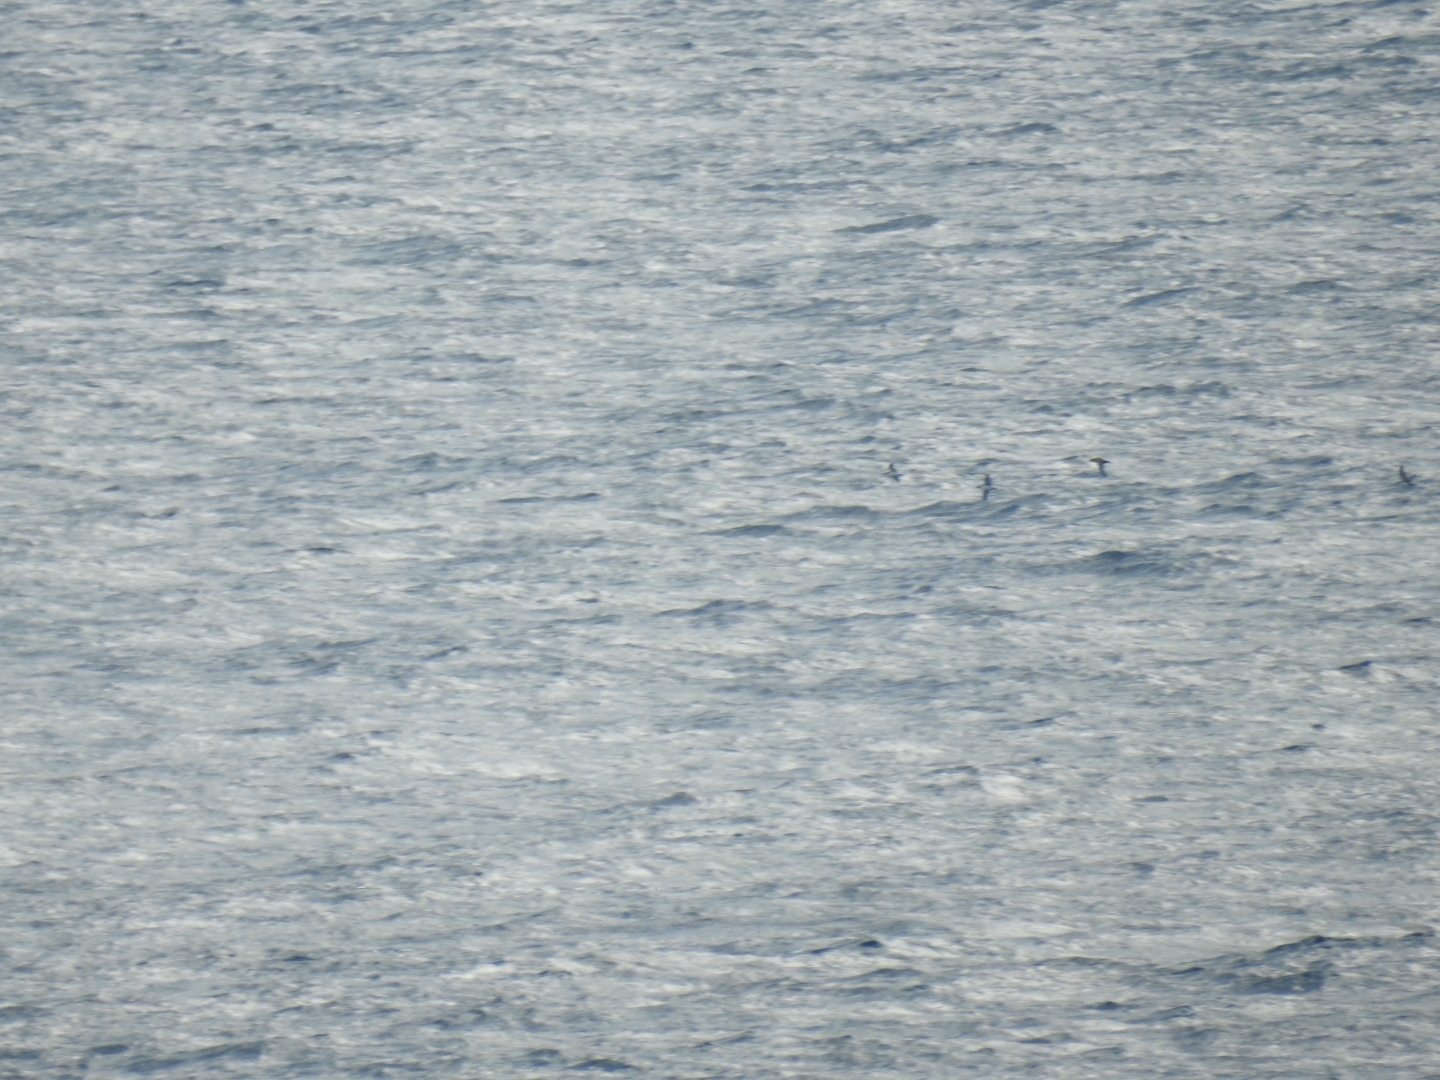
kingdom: Animalia
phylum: Chordata
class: Aves
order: Procellariiformes
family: Procellariidae
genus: Puffinus
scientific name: Puffinus mauretanicus
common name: Balearic shearwater
